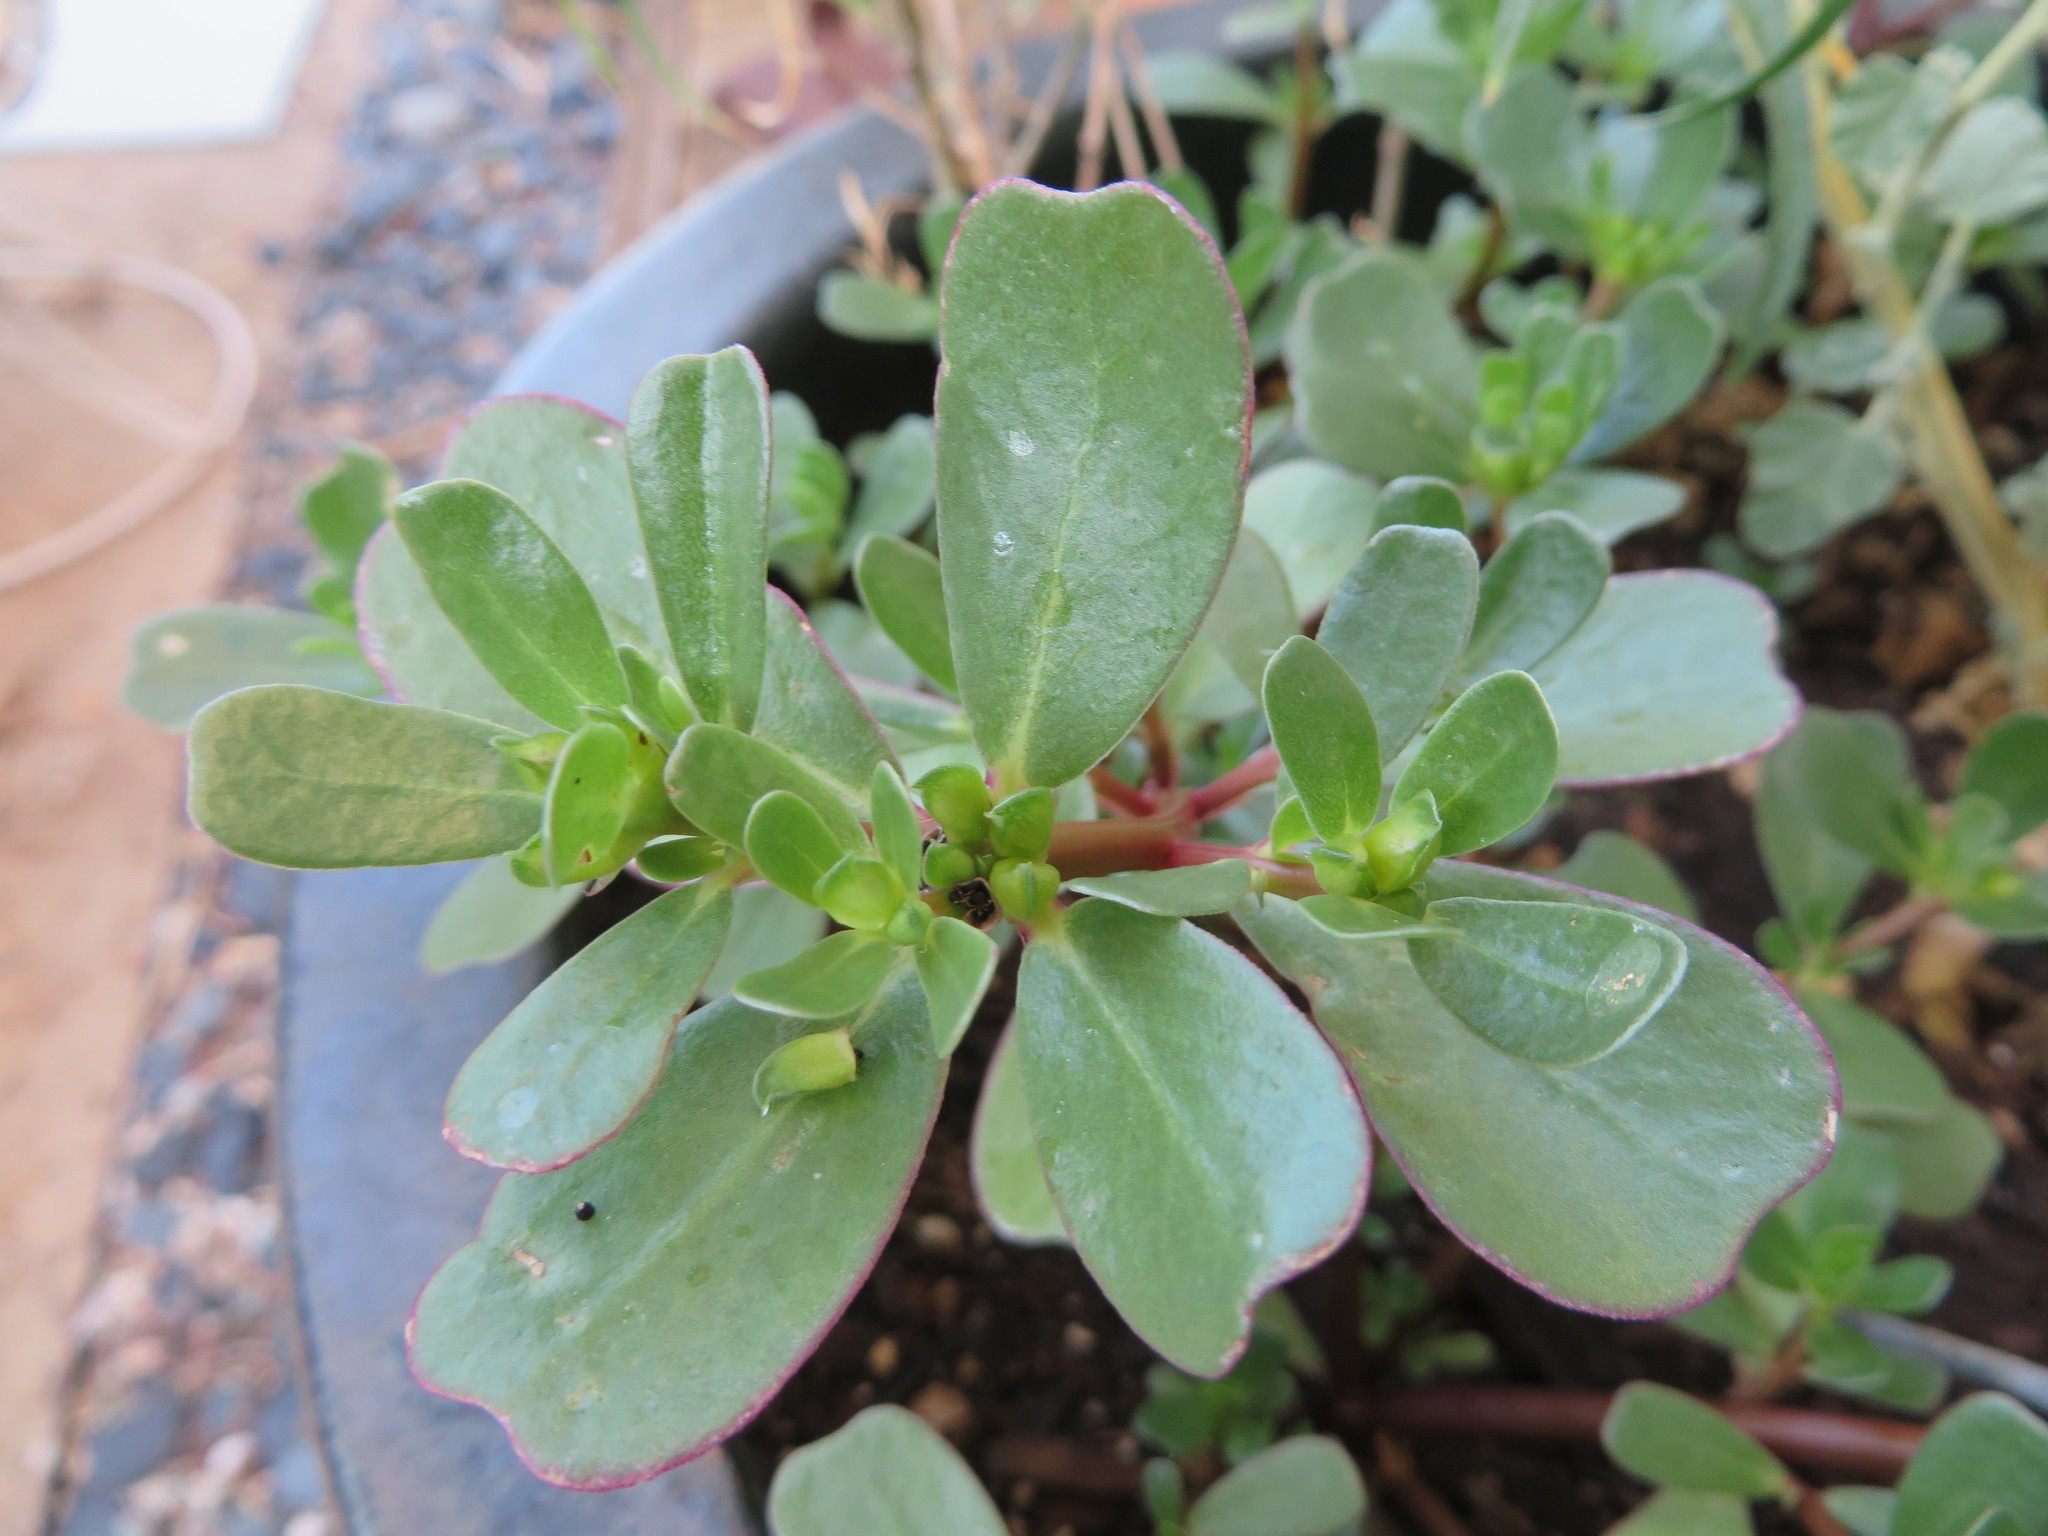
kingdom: Plantae
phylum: Tracheophyta
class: Magnoliopsida
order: Caryophyllales
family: Portulacaceae
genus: Portulaca
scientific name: Portulaca oleracea
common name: Common purslane
